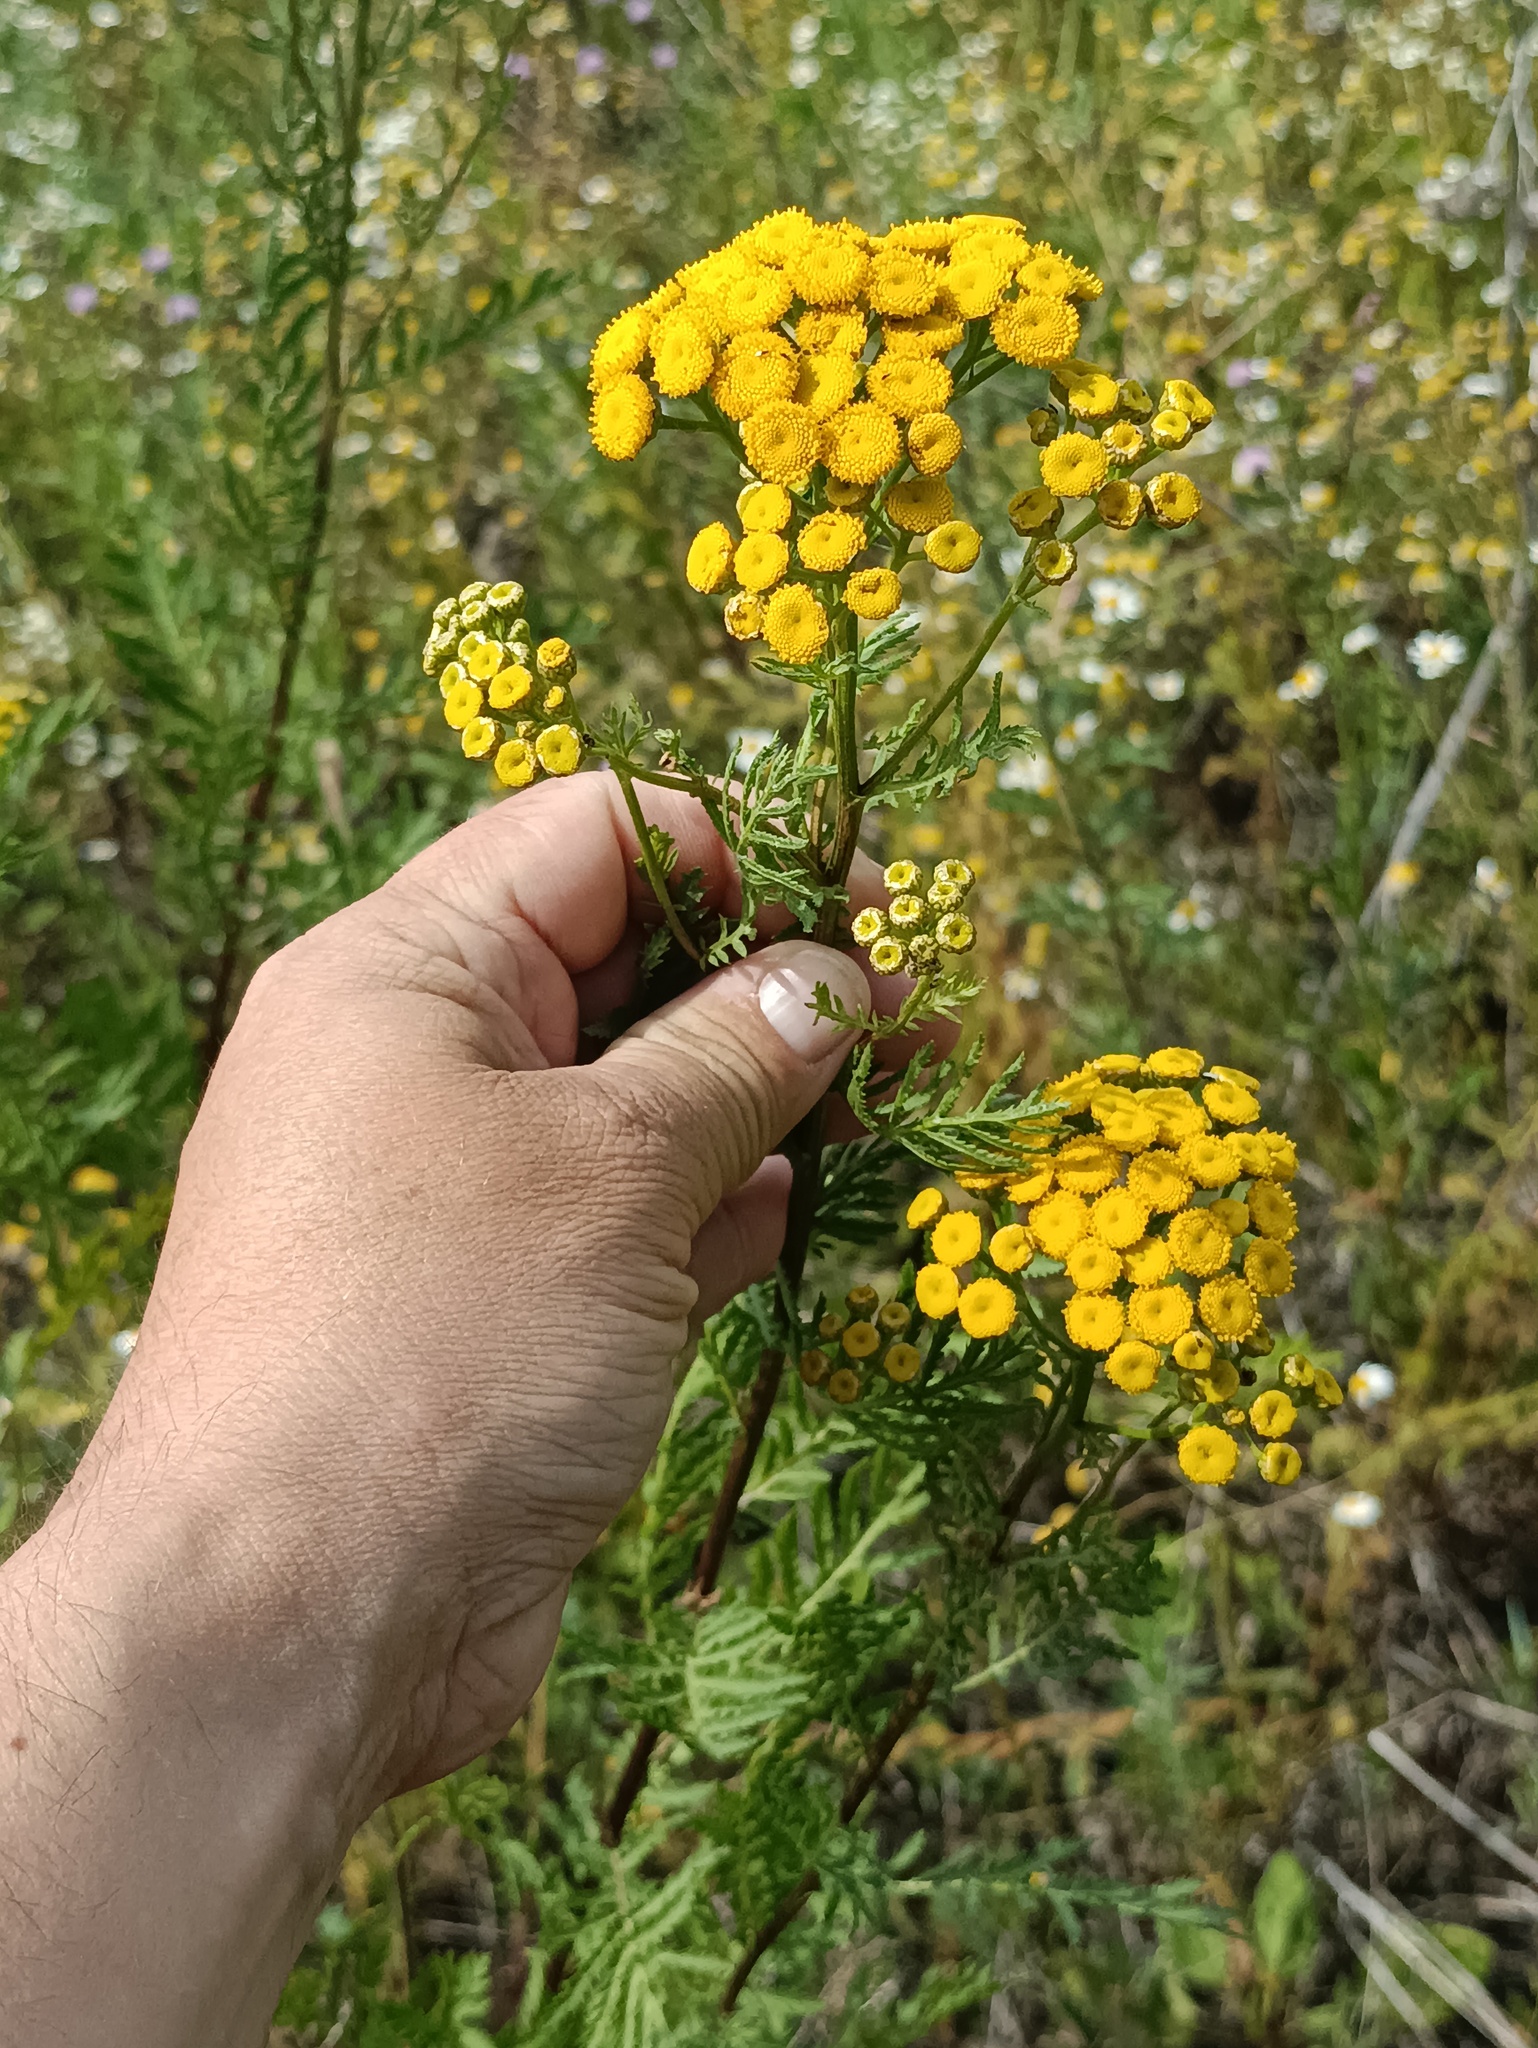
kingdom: Plantae
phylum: Tracheophyta
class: Magnoliopsida
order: Asterales
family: Asteraceae
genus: Tanacetum
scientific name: Tanacetum vulgare
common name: Common tansy
